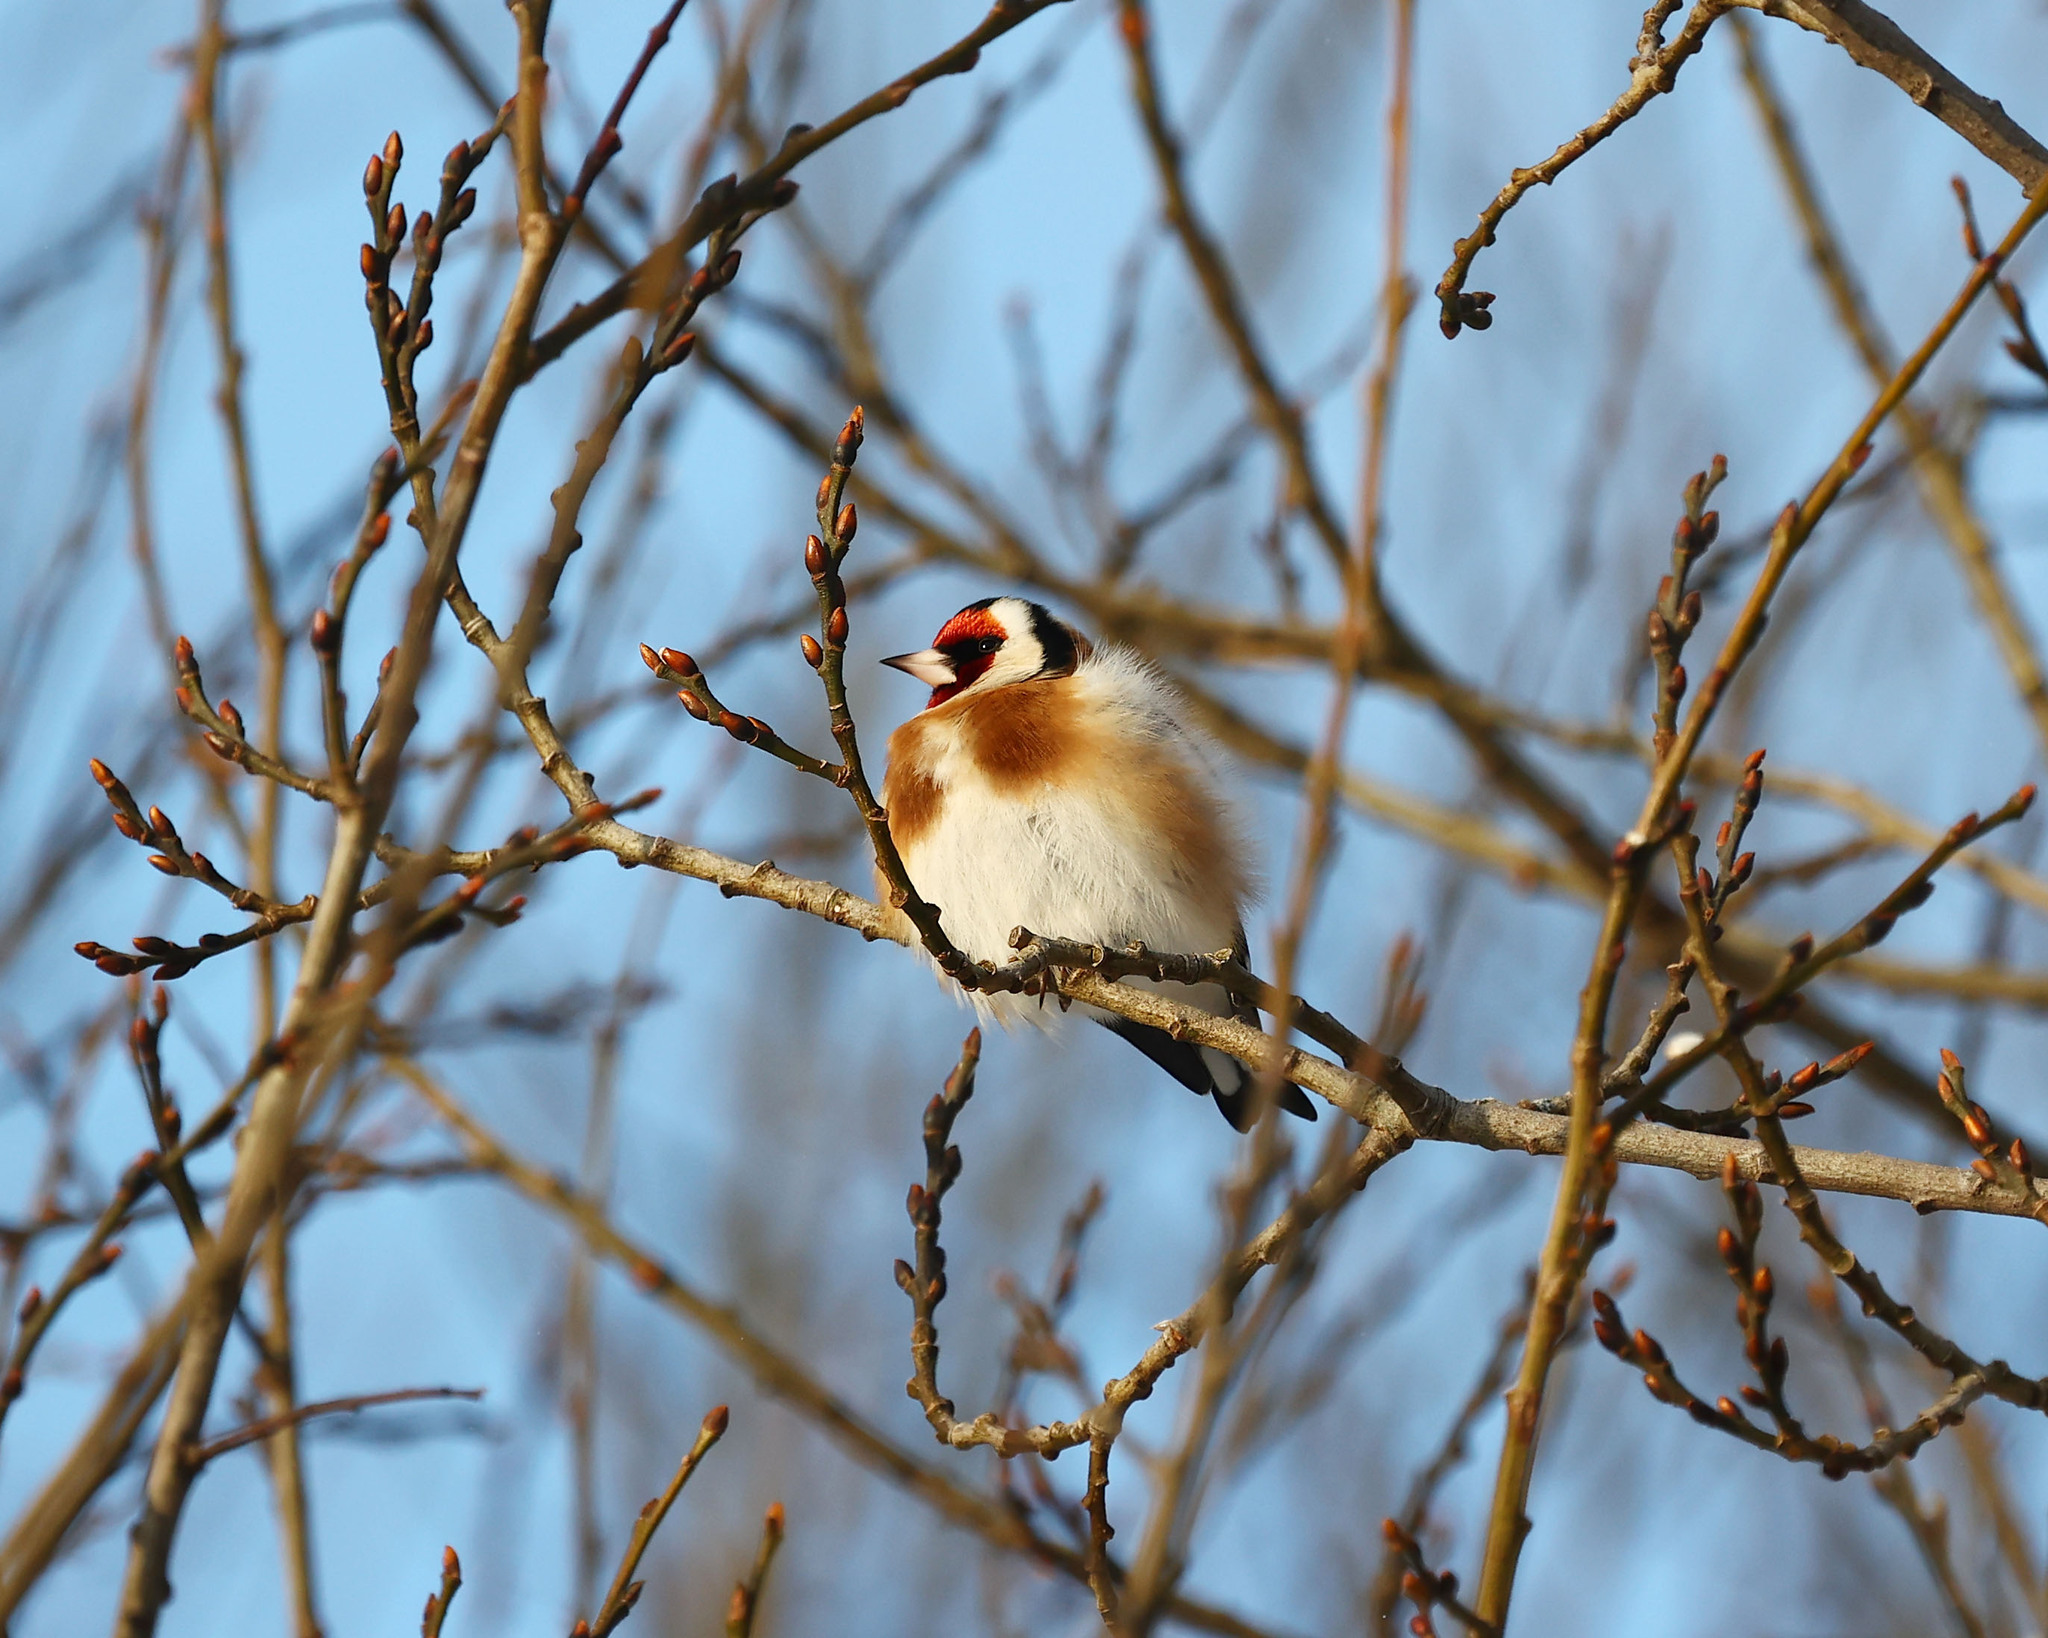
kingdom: Animalia
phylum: Chordata
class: Aves
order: Passeriformes
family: Fringillidae
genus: Carduelis
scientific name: Carduelis carduelis
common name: European goldfinch
